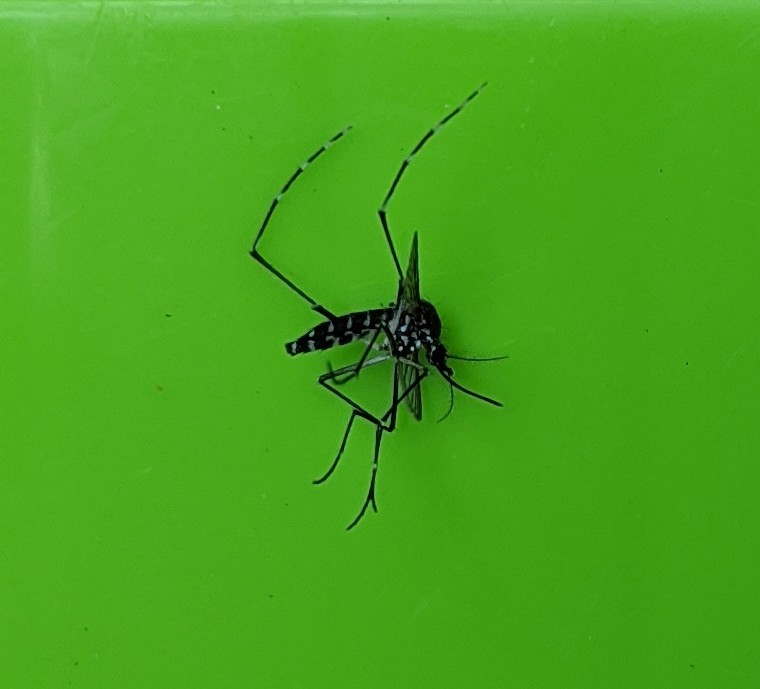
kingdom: Animalia
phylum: Arthropoda
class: Insecta
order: Diptera
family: Culicidae
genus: Aedes
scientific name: Aedes albopictus
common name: Tiger mosquito
